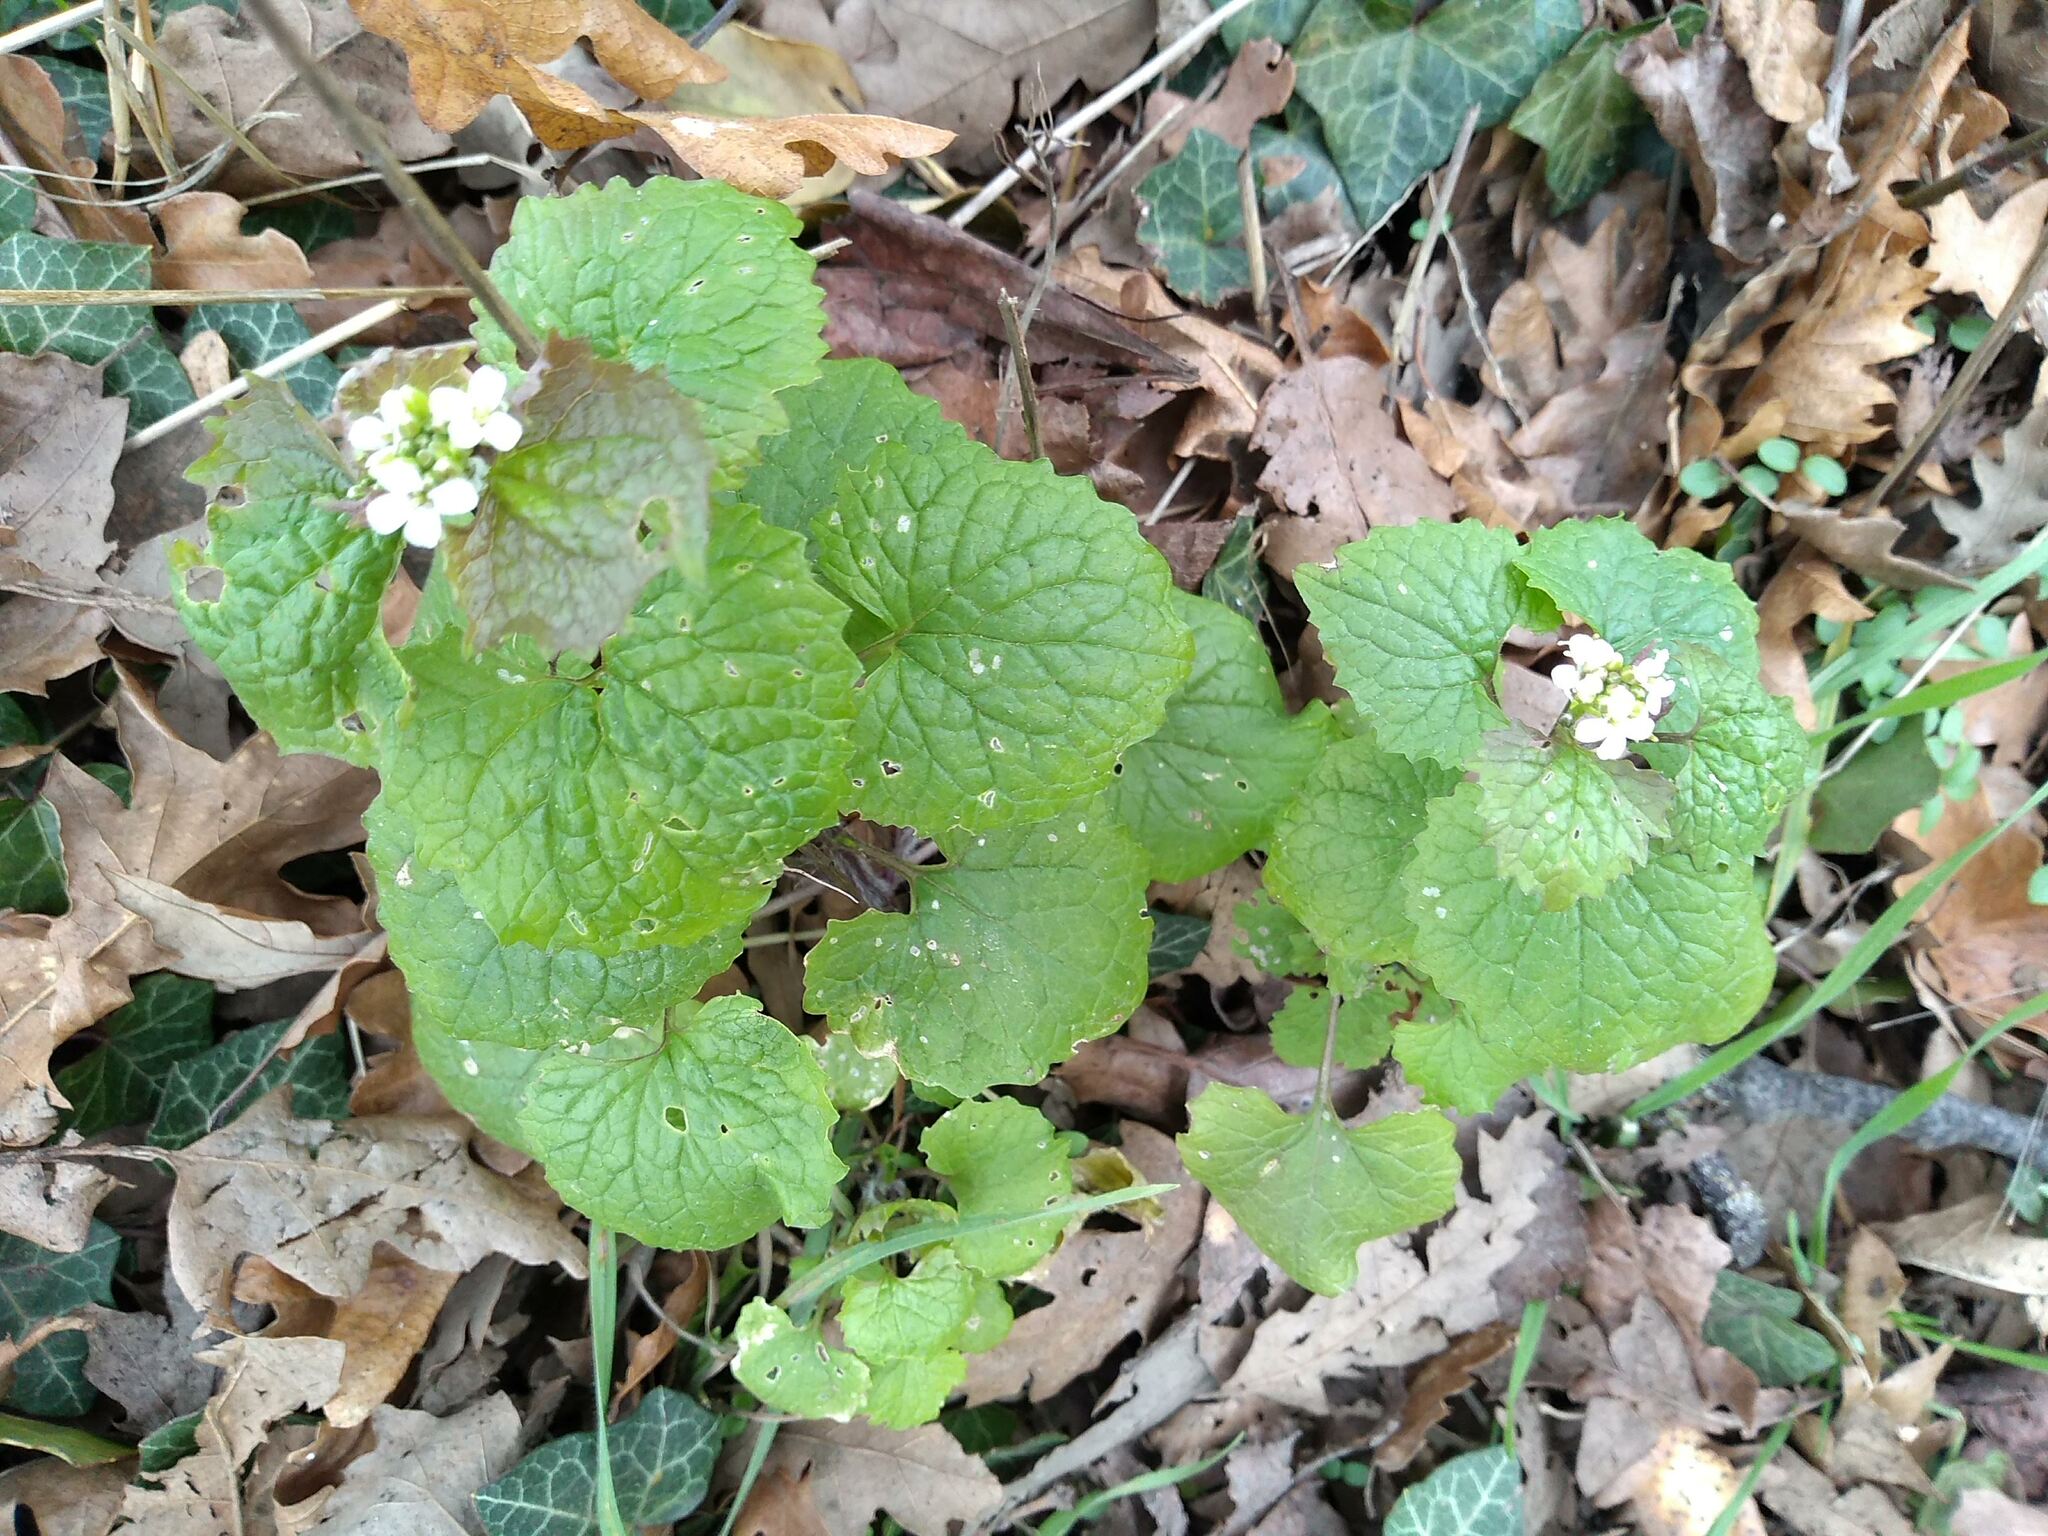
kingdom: Plantae
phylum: Tracheophyta
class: Magnoliopsida
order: Brassicales
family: Brassicaceae
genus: Alliaria
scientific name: Alliaria petiolata
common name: Garlic mustard
